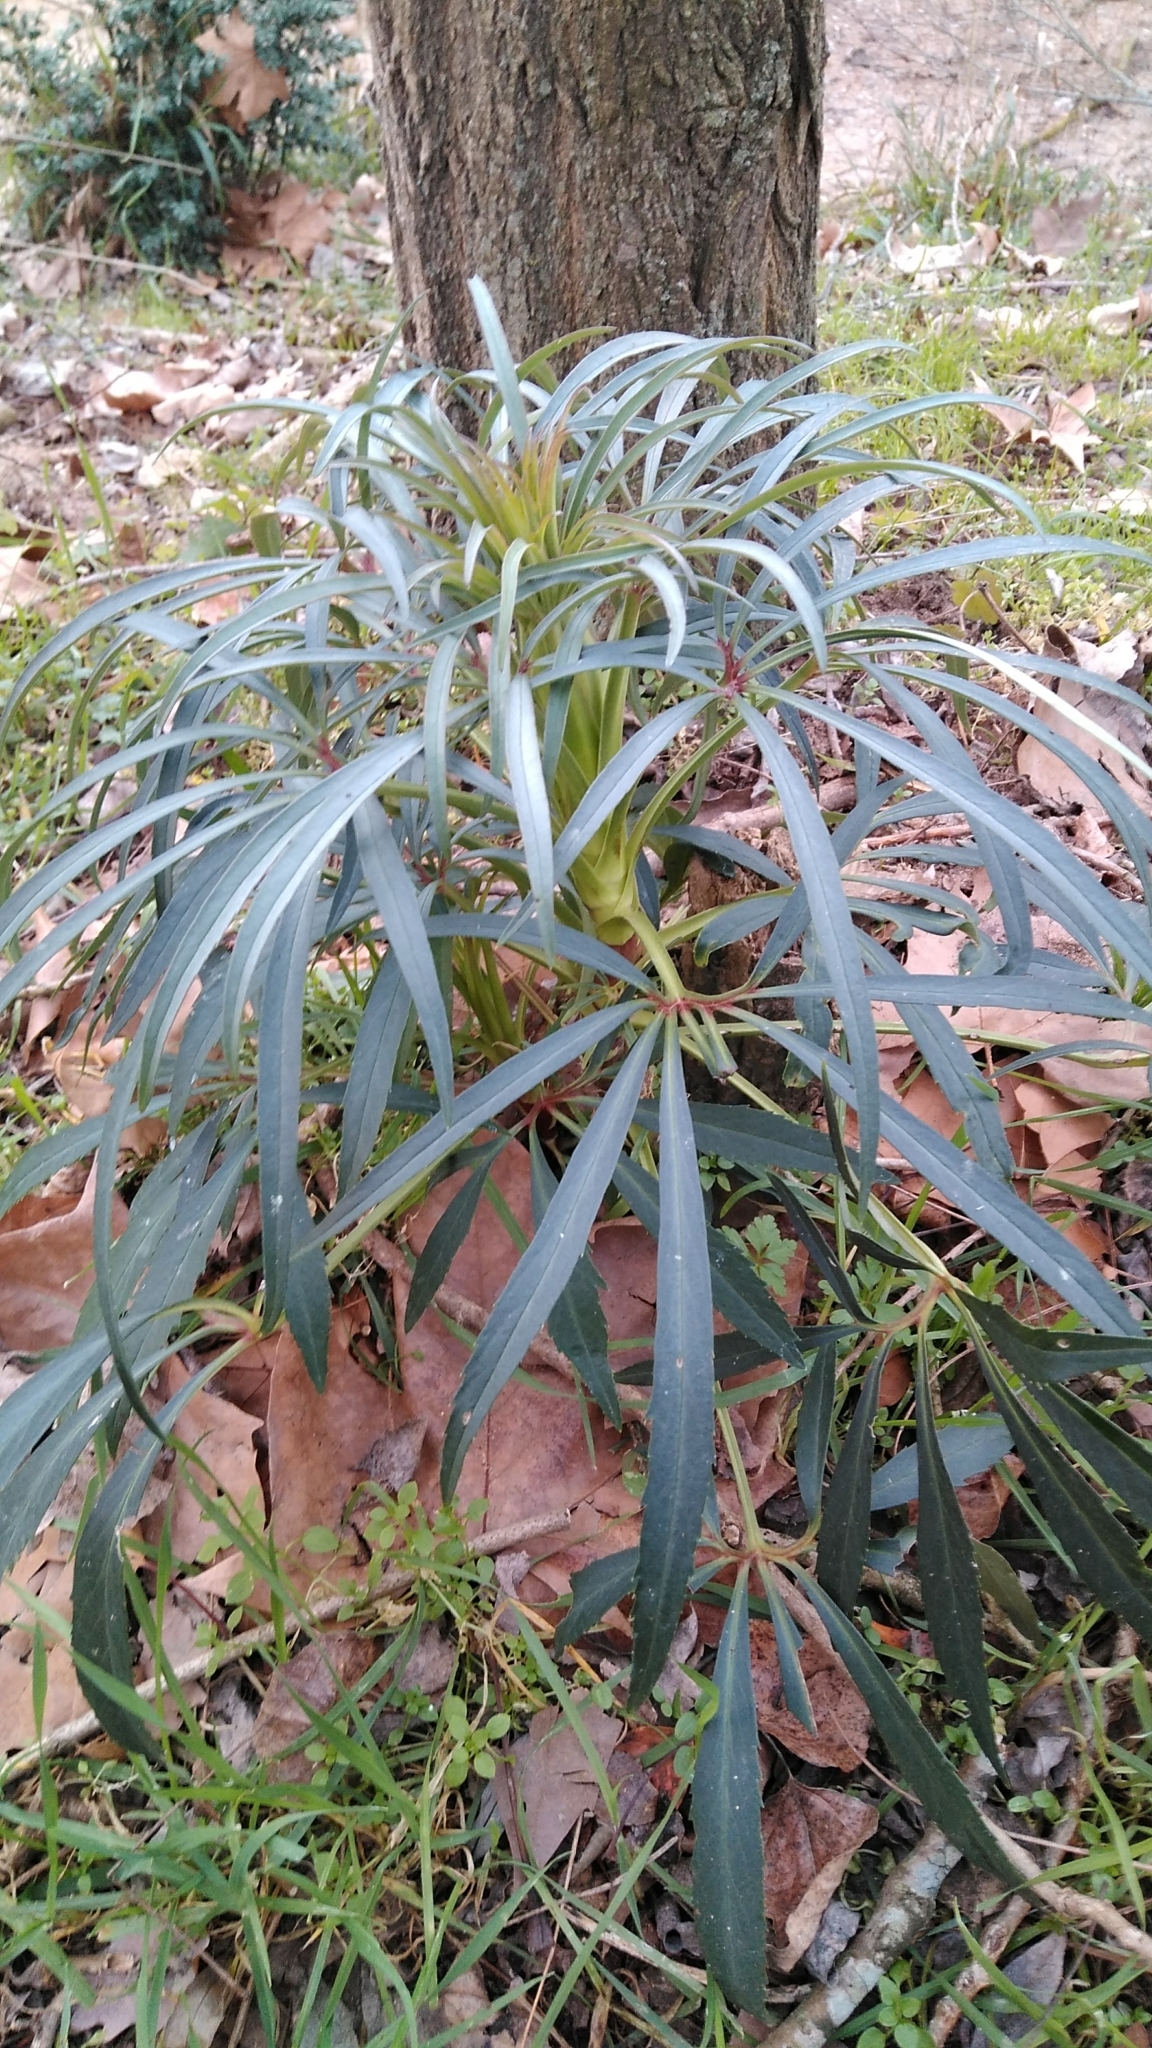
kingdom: Plantae
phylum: Tracheophyta
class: Magnoliopsida
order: Ranunculales
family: Ranunculaceae
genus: Helleborus
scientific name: Helleborus foetidus
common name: Stinking hellebore
